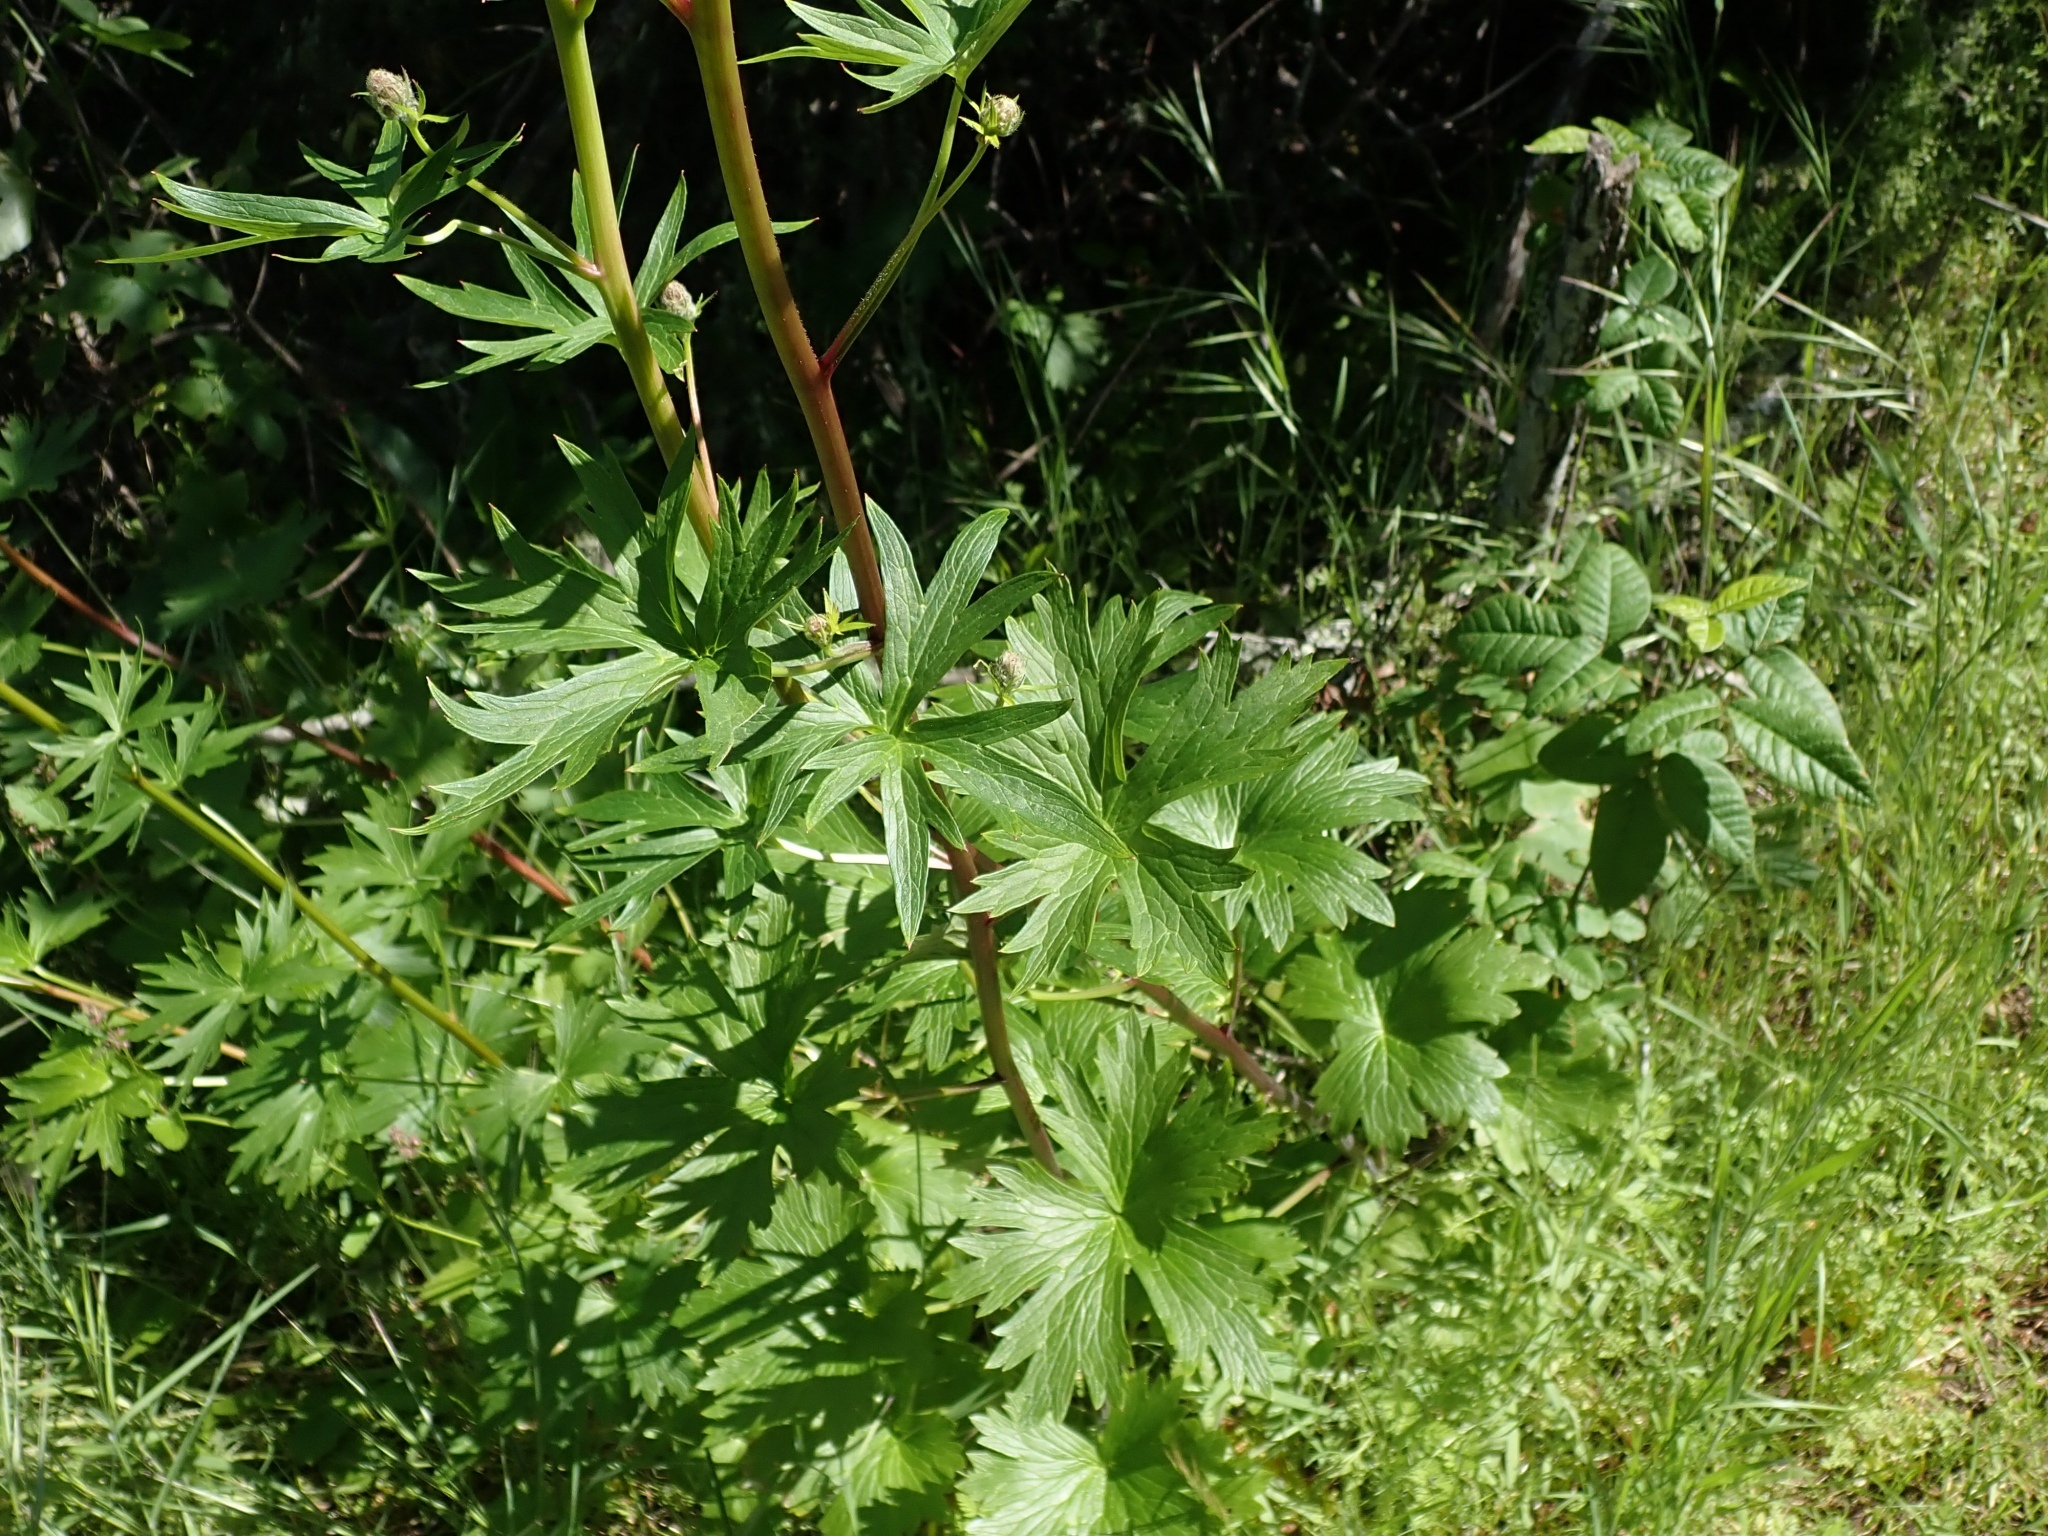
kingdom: Plantae
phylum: Tracheophyta
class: Magnoliopsida
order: Ranunculales
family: Ranunculaceae
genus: Delphinium
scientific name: Delphinium californicum
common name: California larkspur
